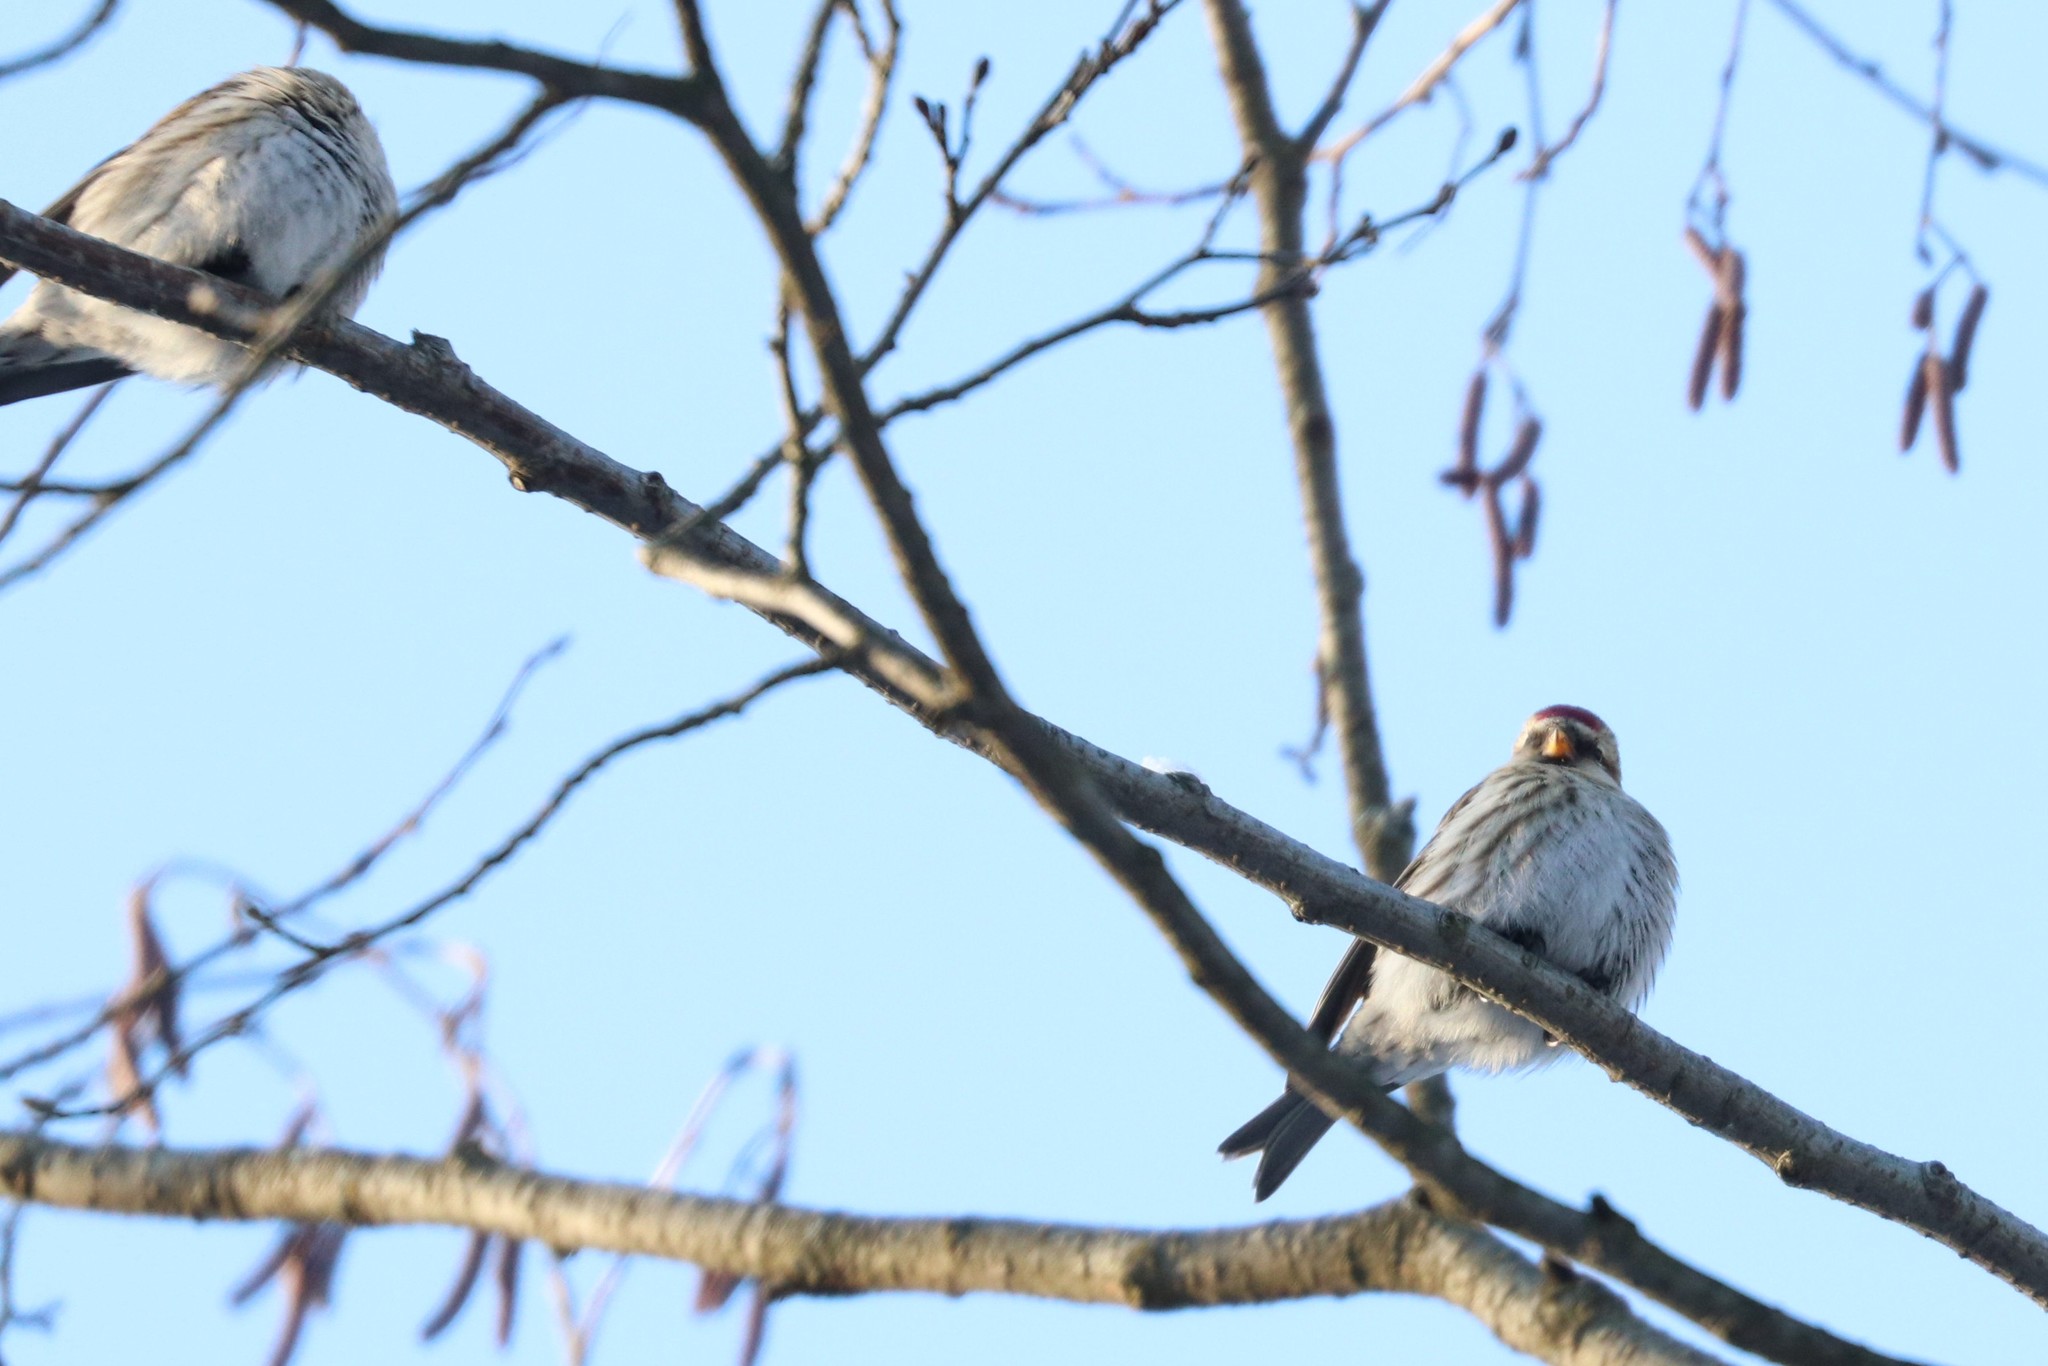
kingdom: Animalia
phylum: Chordata
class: Aves
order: Passeriformes
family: Fringillidae
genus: Acanthis
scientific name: Acanthis flammea
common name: Common redpoll
